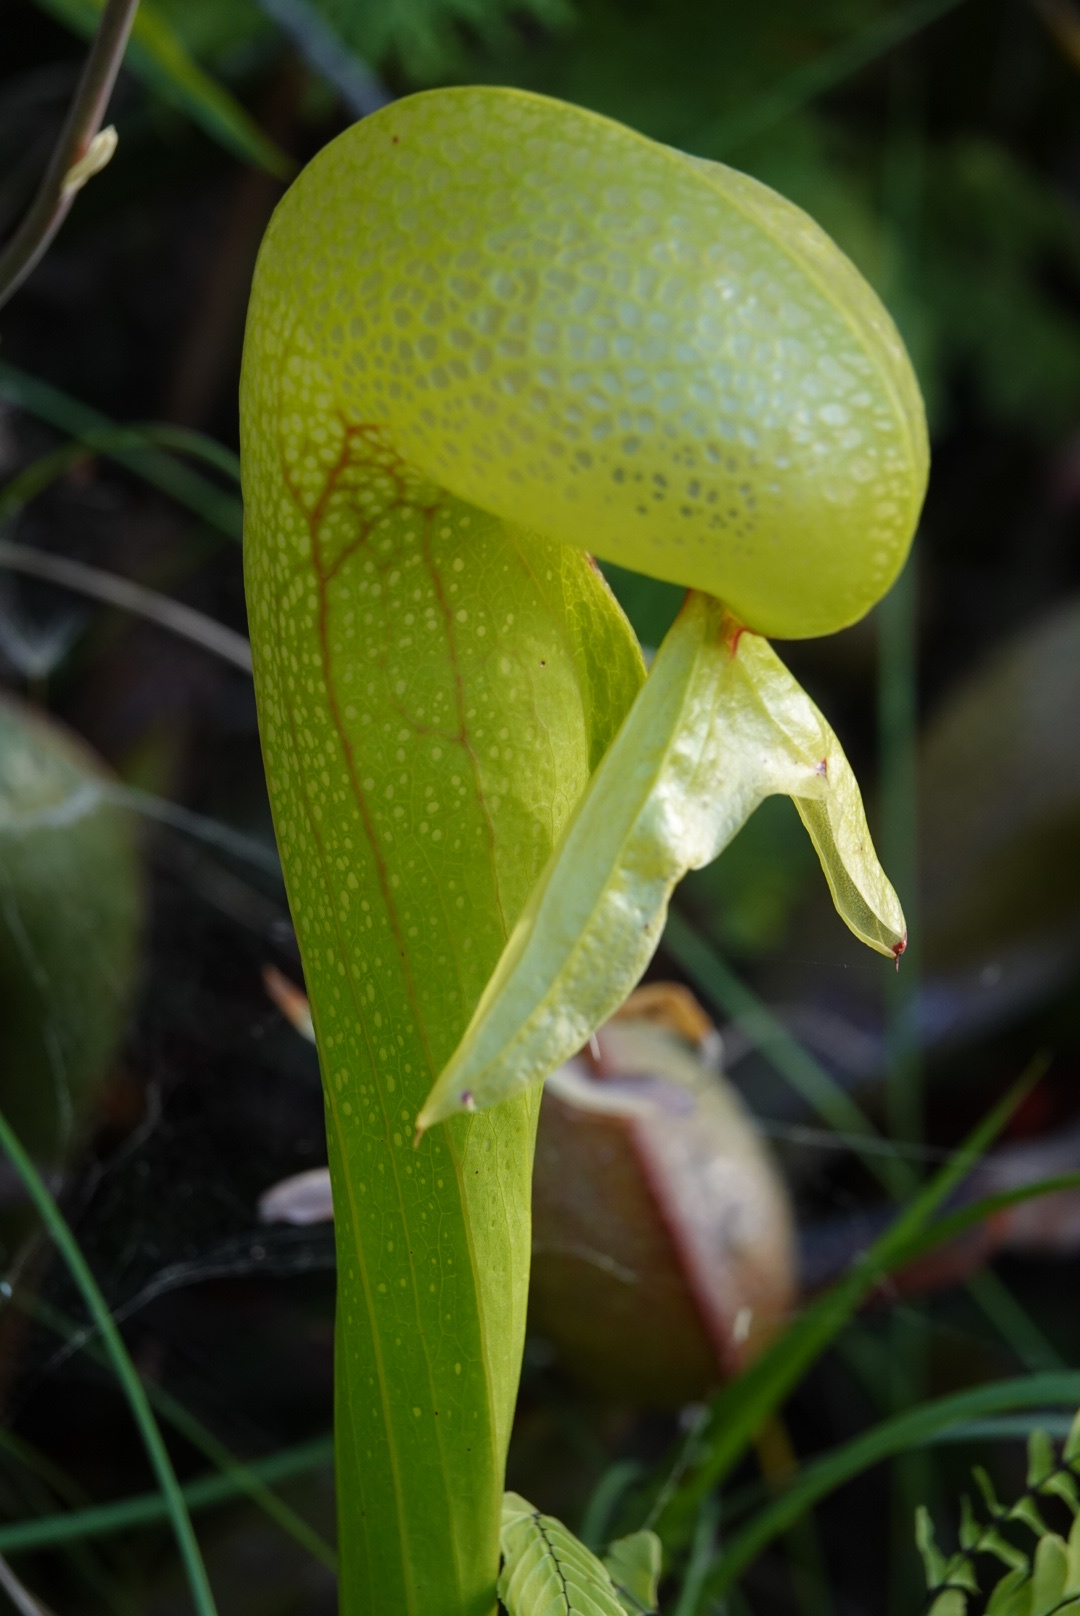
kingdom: Plantae
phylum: Tracheophyta
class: Magnoliopsida
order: Ericales
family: Sarraceniaceae
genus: Darlingtonia
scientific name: Darlingtonia californica
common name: California pitcher plant
